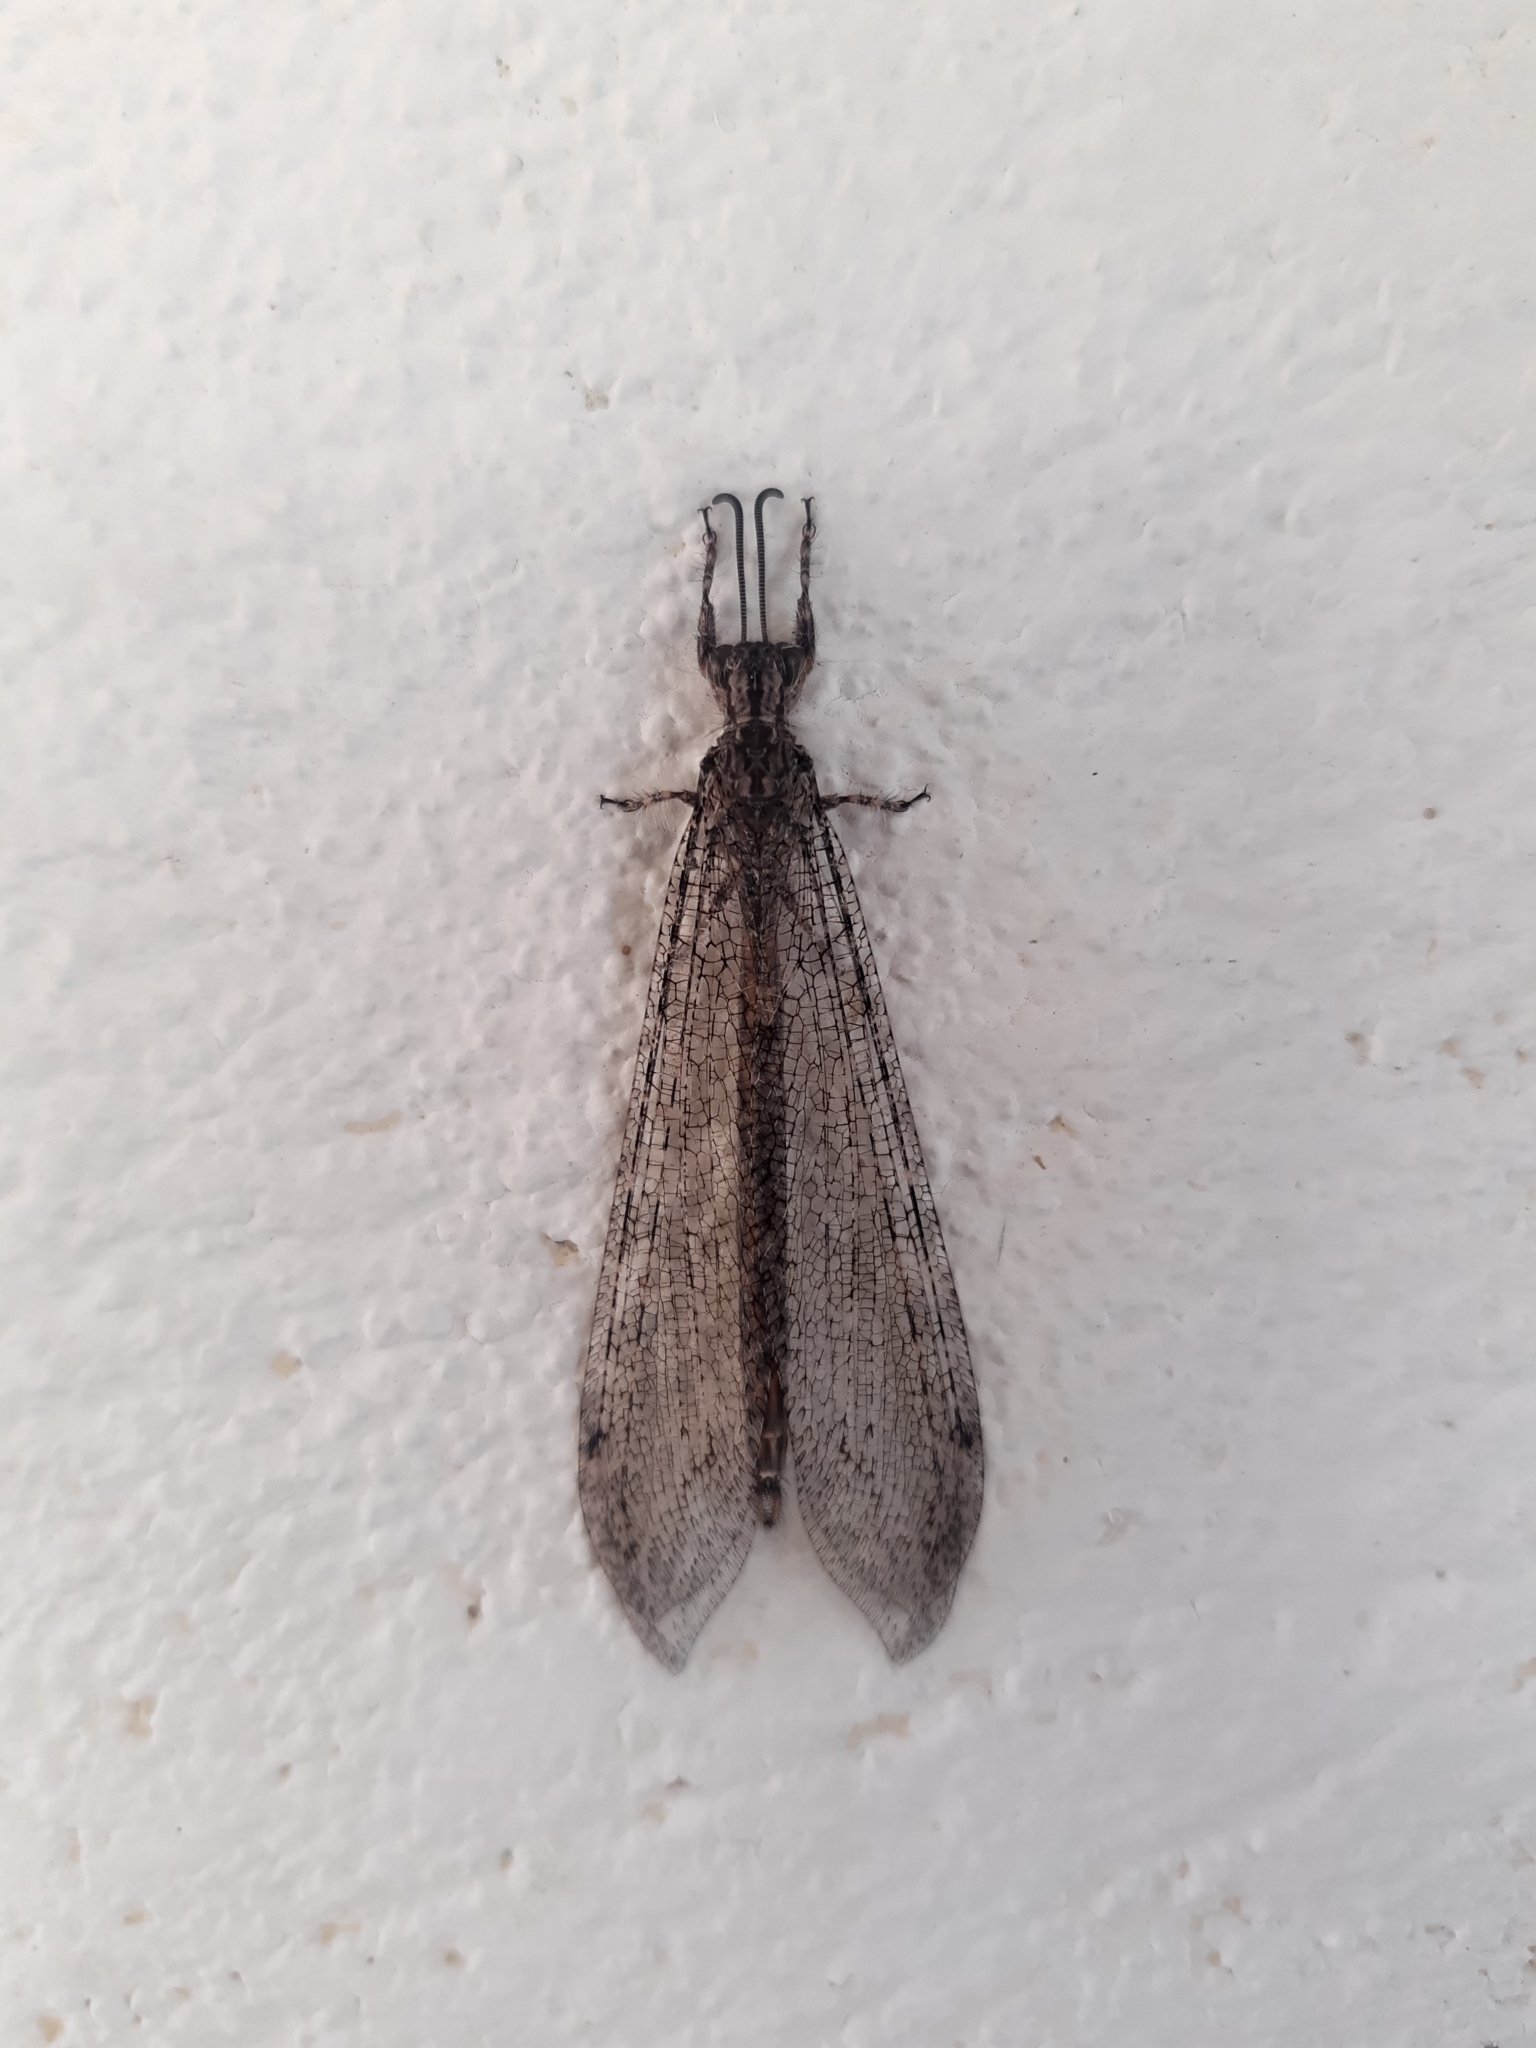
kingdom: Animalia
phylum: Arthropoda
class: Insecta
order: Neuroptera
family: Myrmeleontidae
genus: Vella
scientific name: Vella fallax
